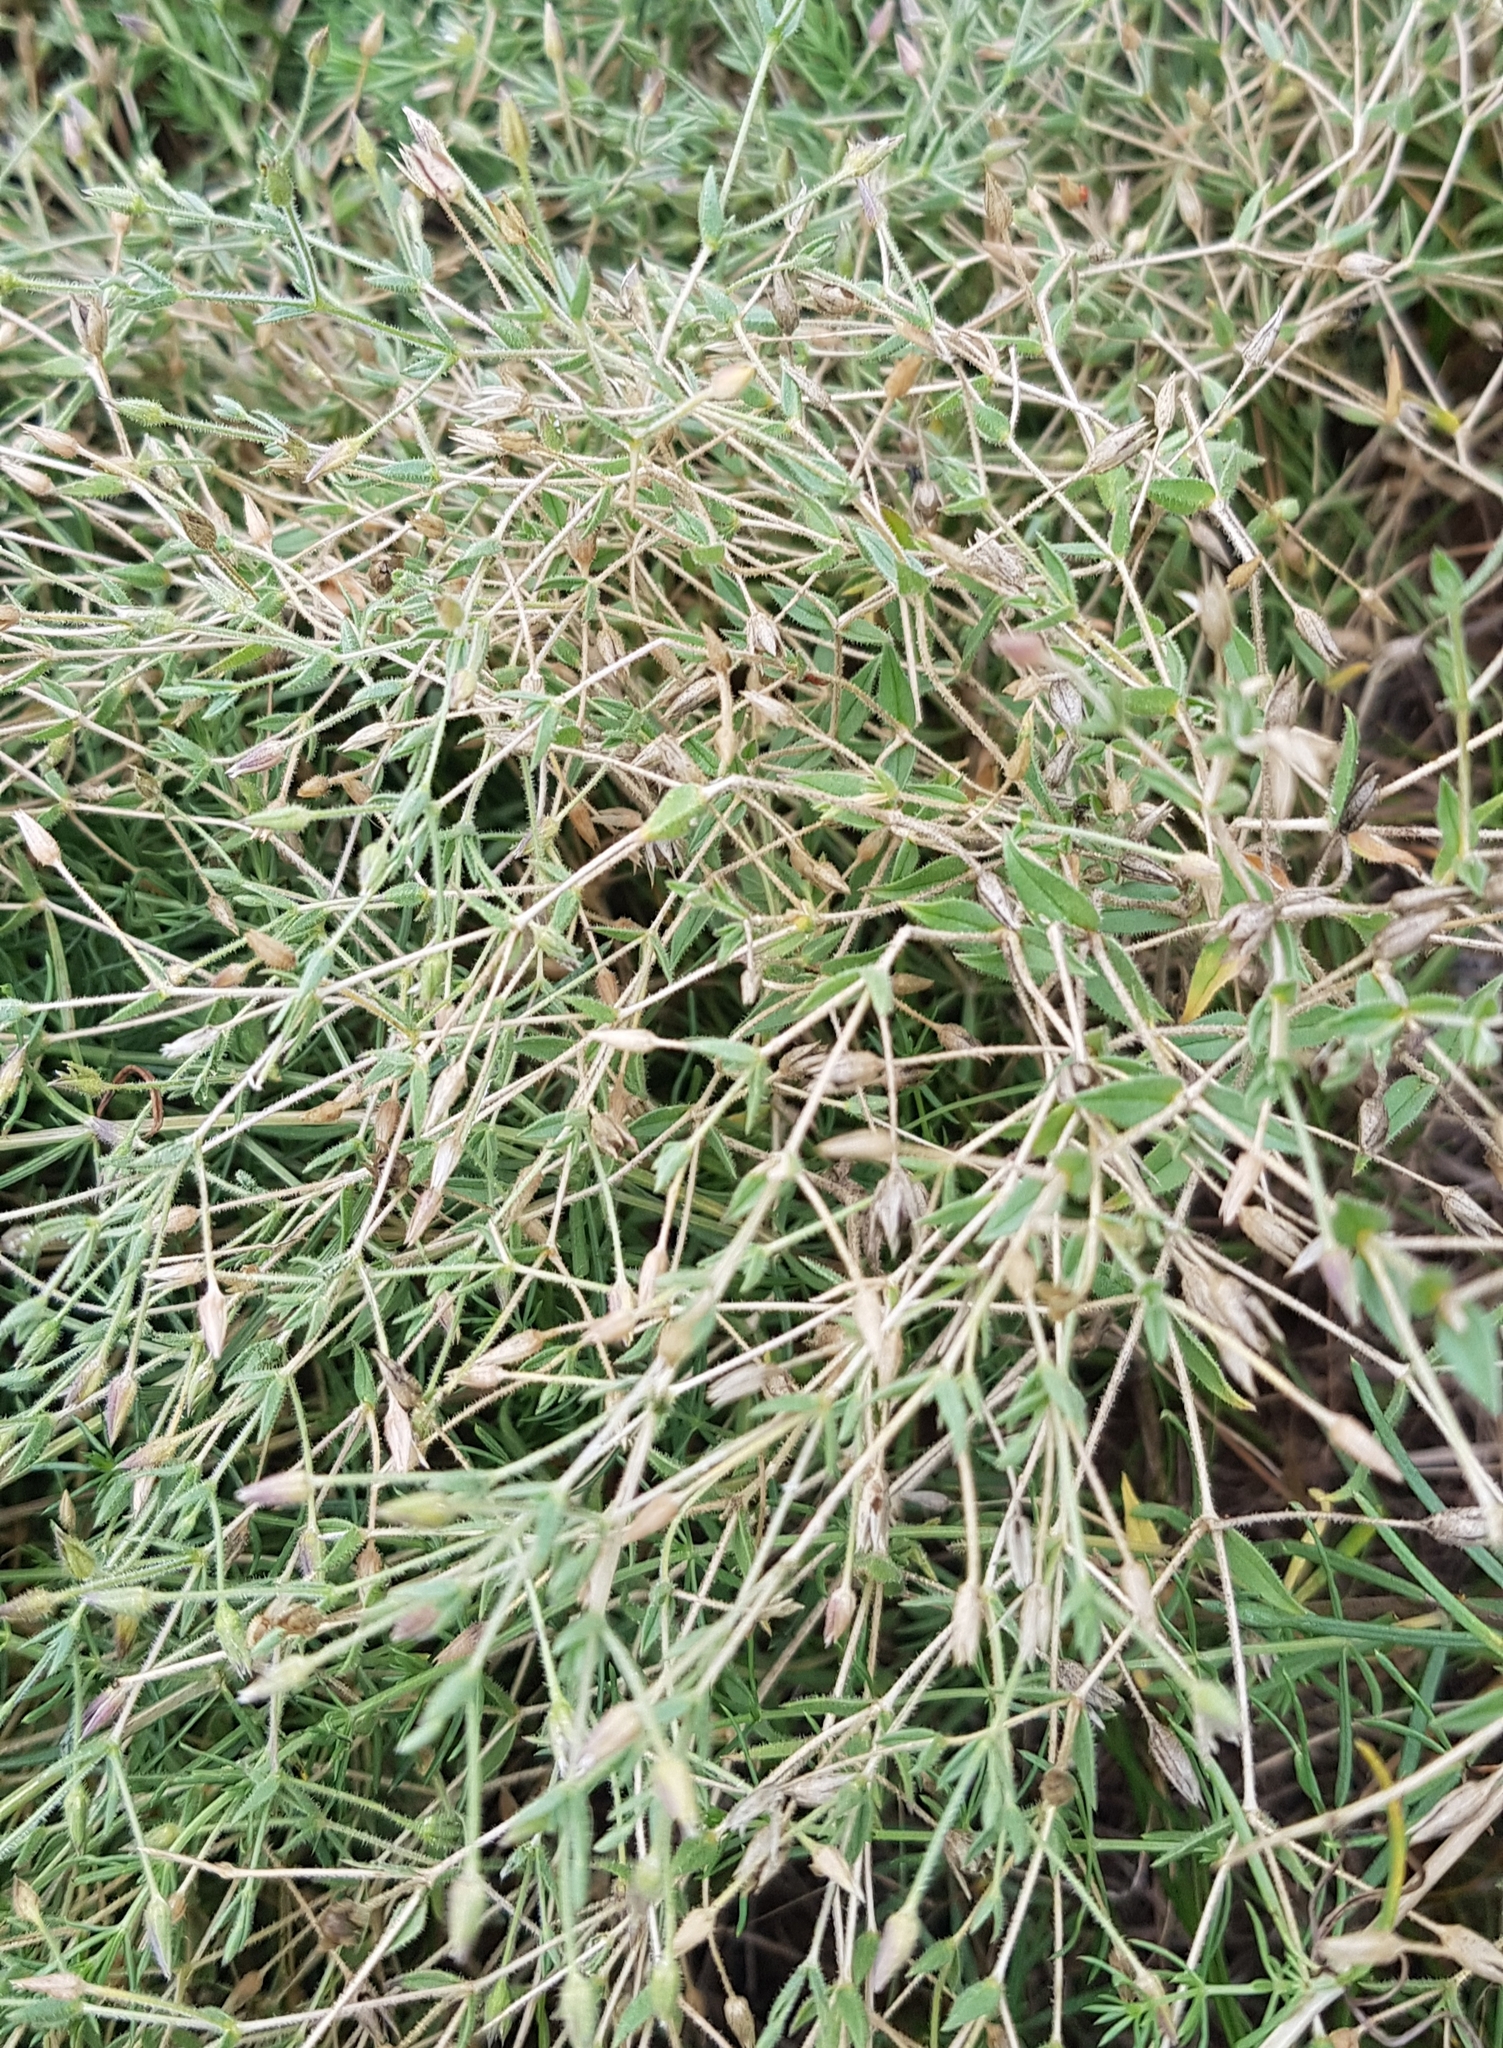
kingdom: Plantae
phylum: Tracheophyta
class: Magnoliopsida
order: Caryophyllales
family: Caryophyllaceae
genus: Stellaria
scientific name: Stellaria crassifolia
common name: Fleshy starwort
